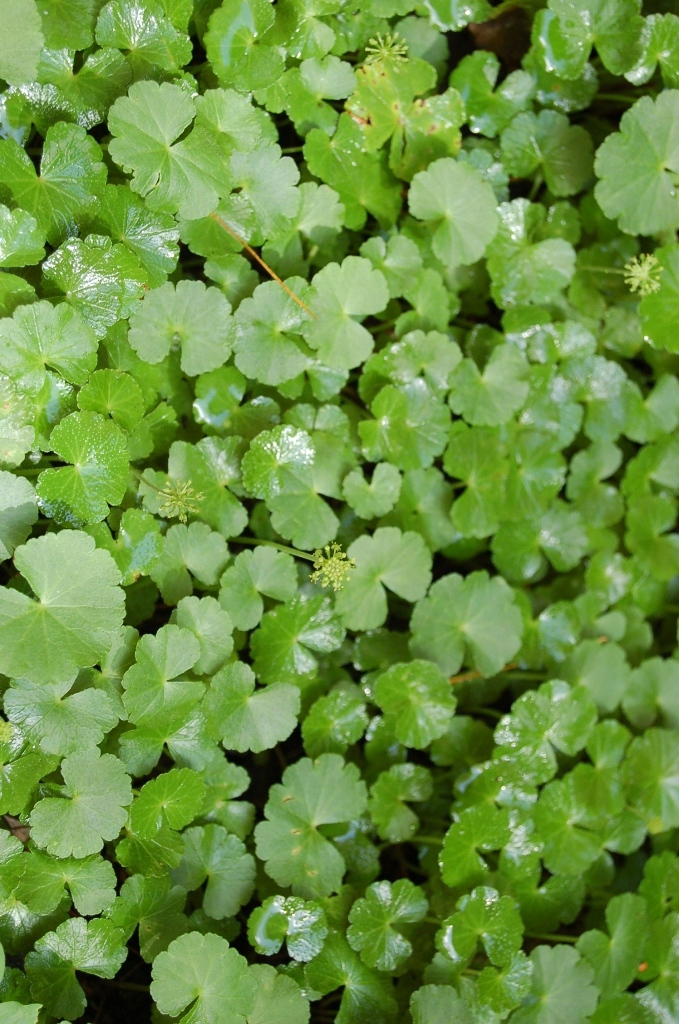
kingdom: Plantae
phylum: Tracheophyta
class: Magnoliopsida
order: Apiales
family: Araliaceae
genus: Hydrocotyle
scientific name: Hydrocotyle mexicana
